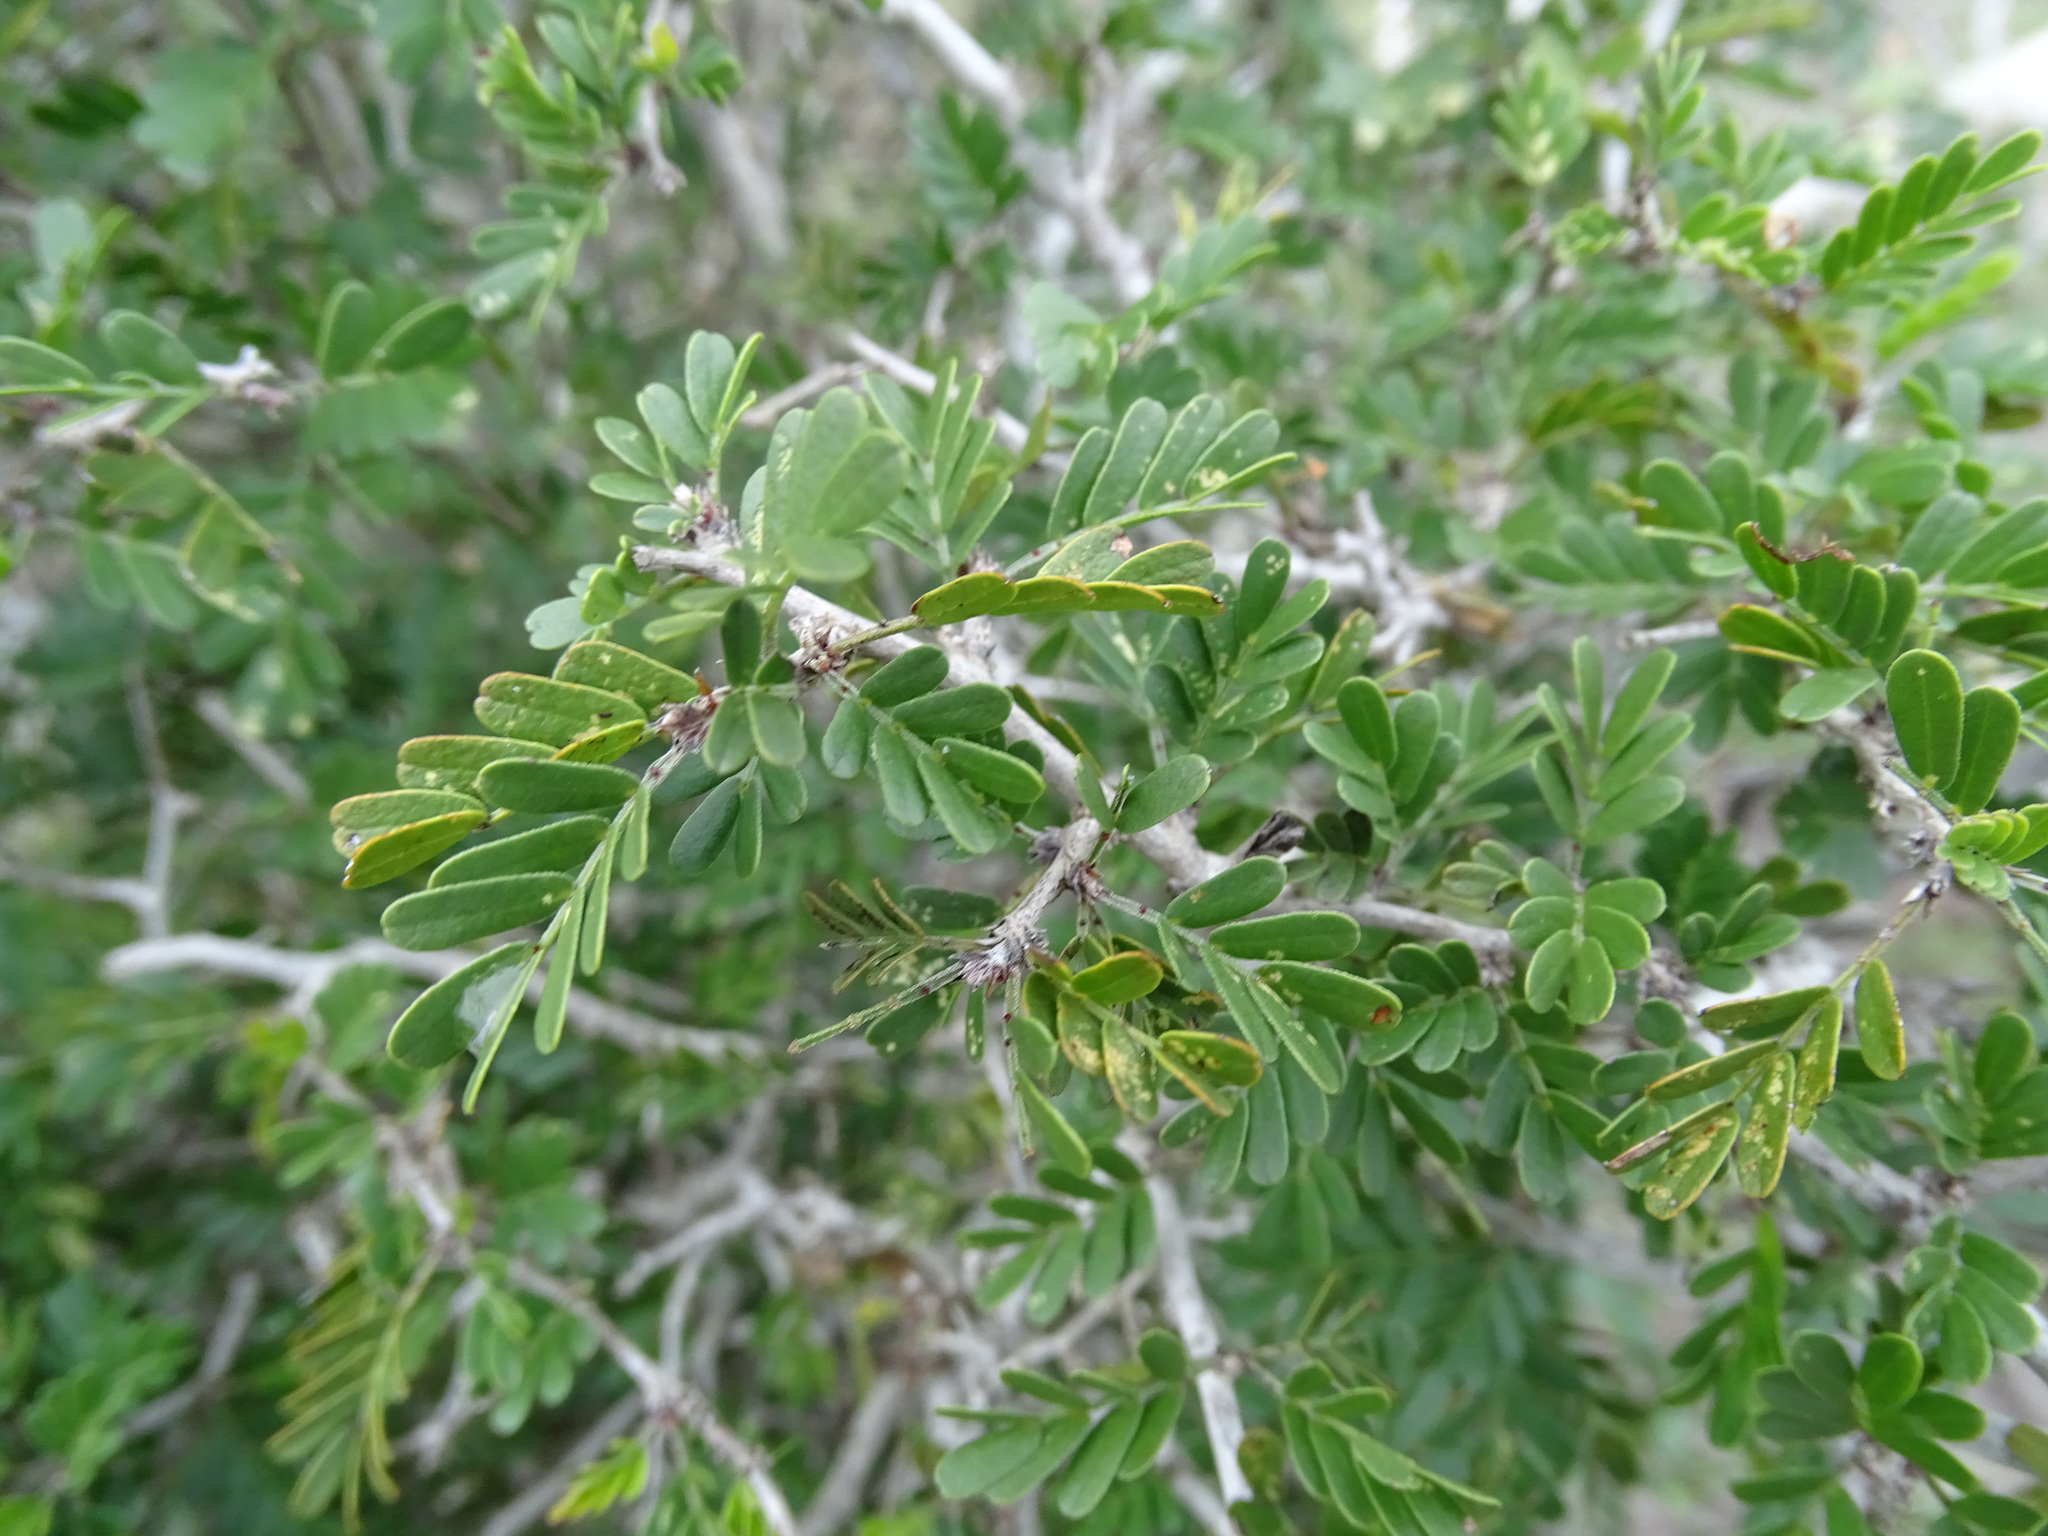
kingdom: Plantae
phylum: Tracheophyta
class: Magnoliopsida
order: Fabales
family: Fabaceae
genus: Chamaecrista
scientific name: Chamaecrista greggii
